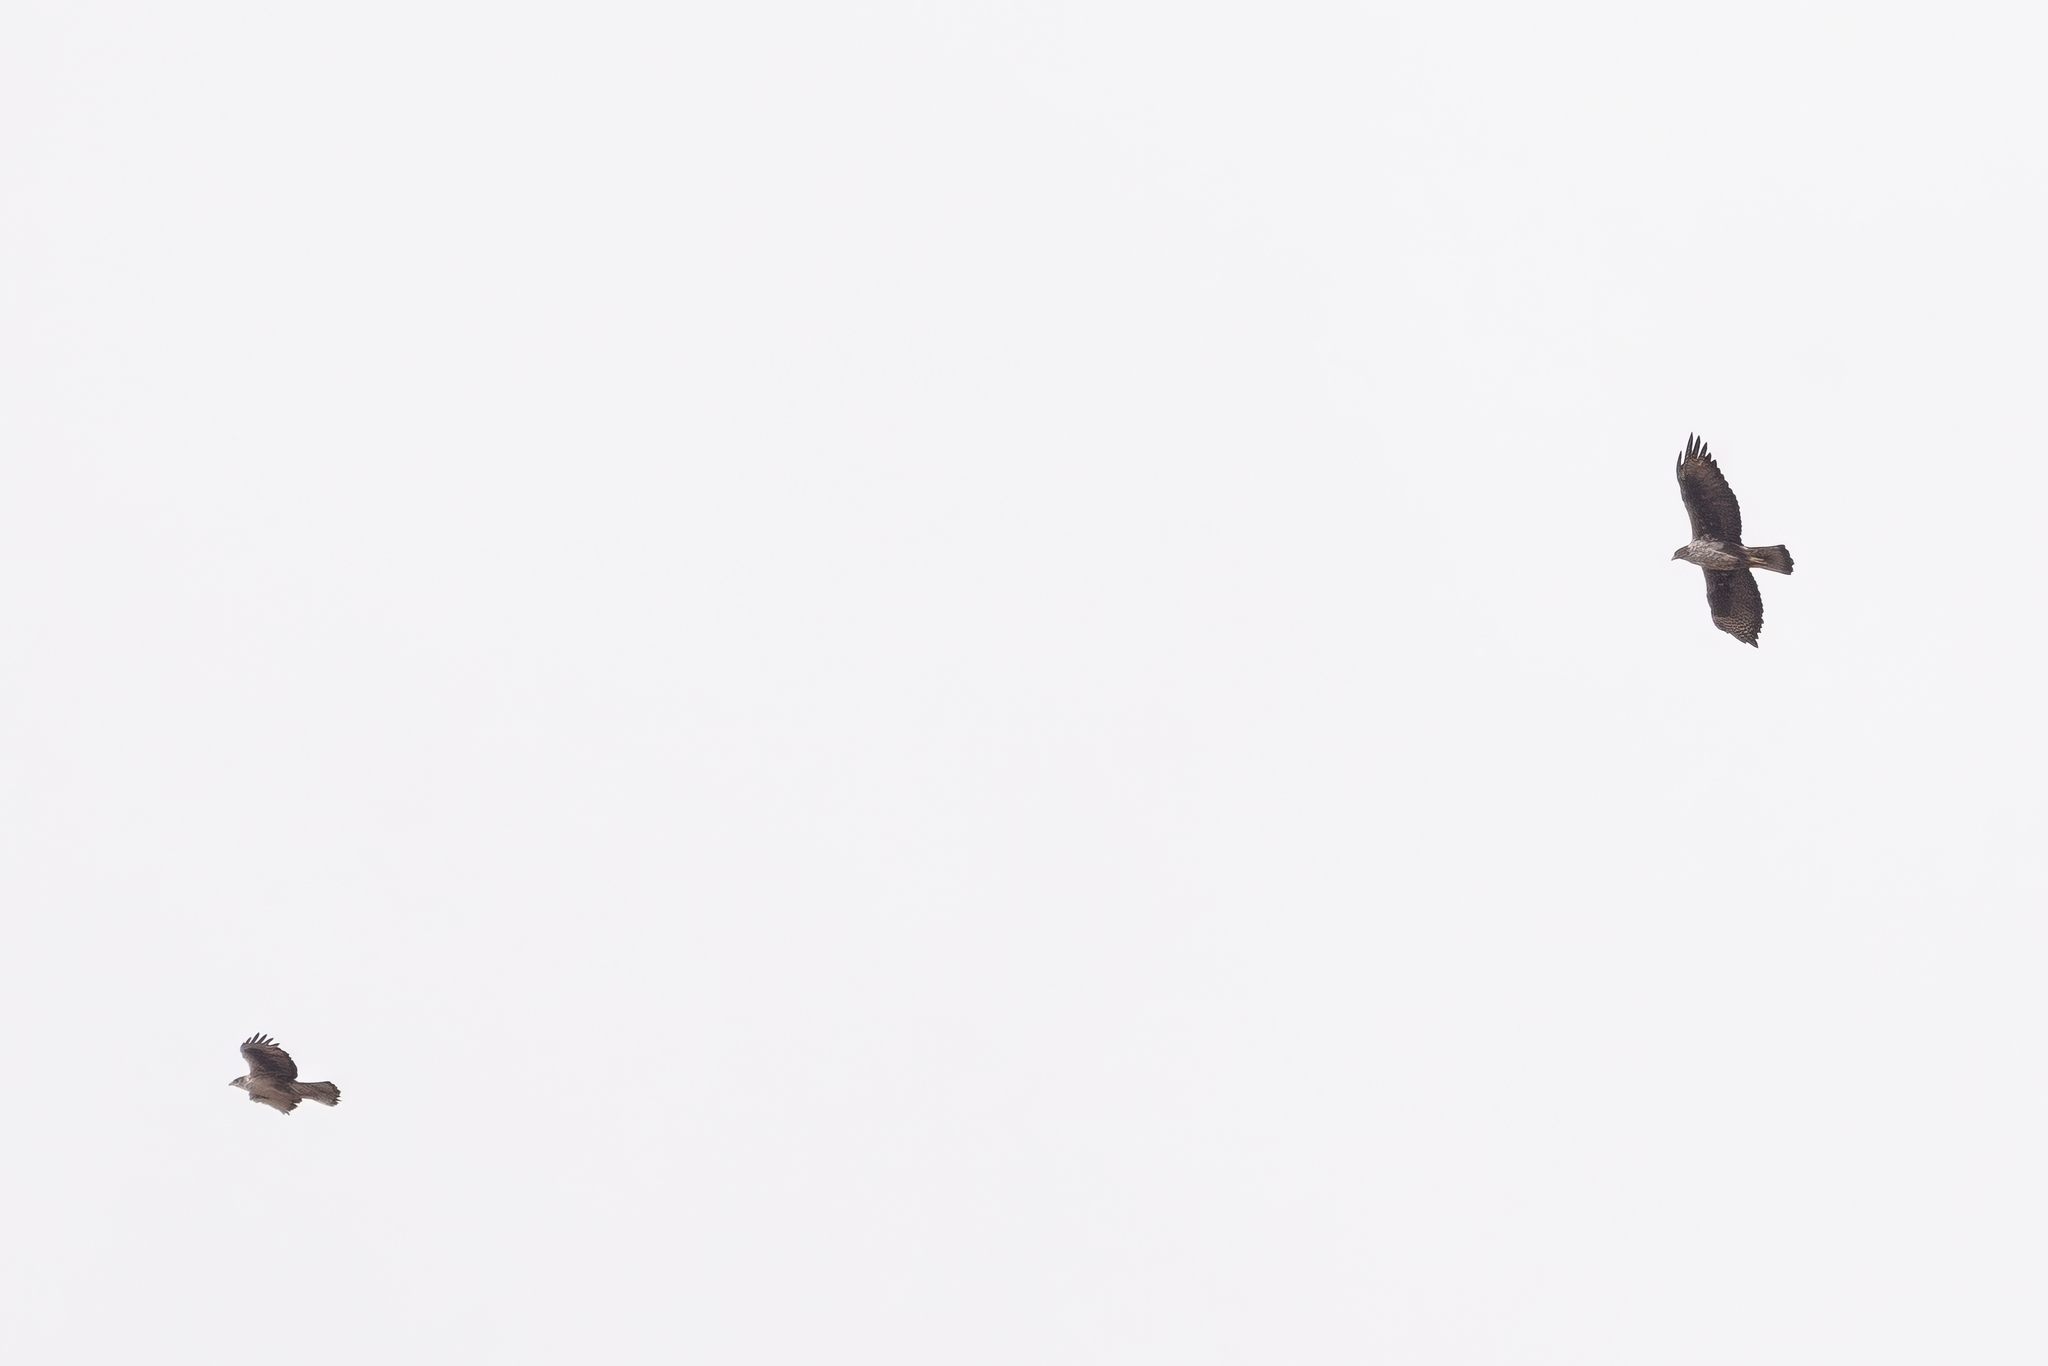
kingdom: Animalia
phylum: Chordata
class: Aves
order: Accipitriformes
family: Accipitridae
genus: Aquila
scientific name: Aquila fasciata
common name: Bonelli's eagle
